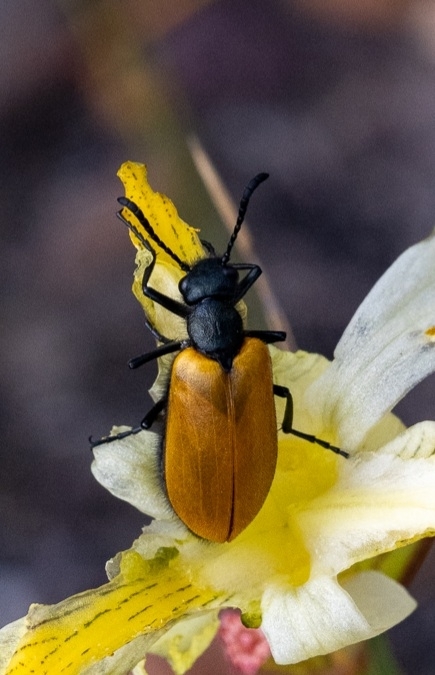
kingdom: Animalia
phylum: Arthropoda
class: Insecta
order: Coleoptera
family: Meloidae
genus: Prolytta
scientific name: Prolytta
